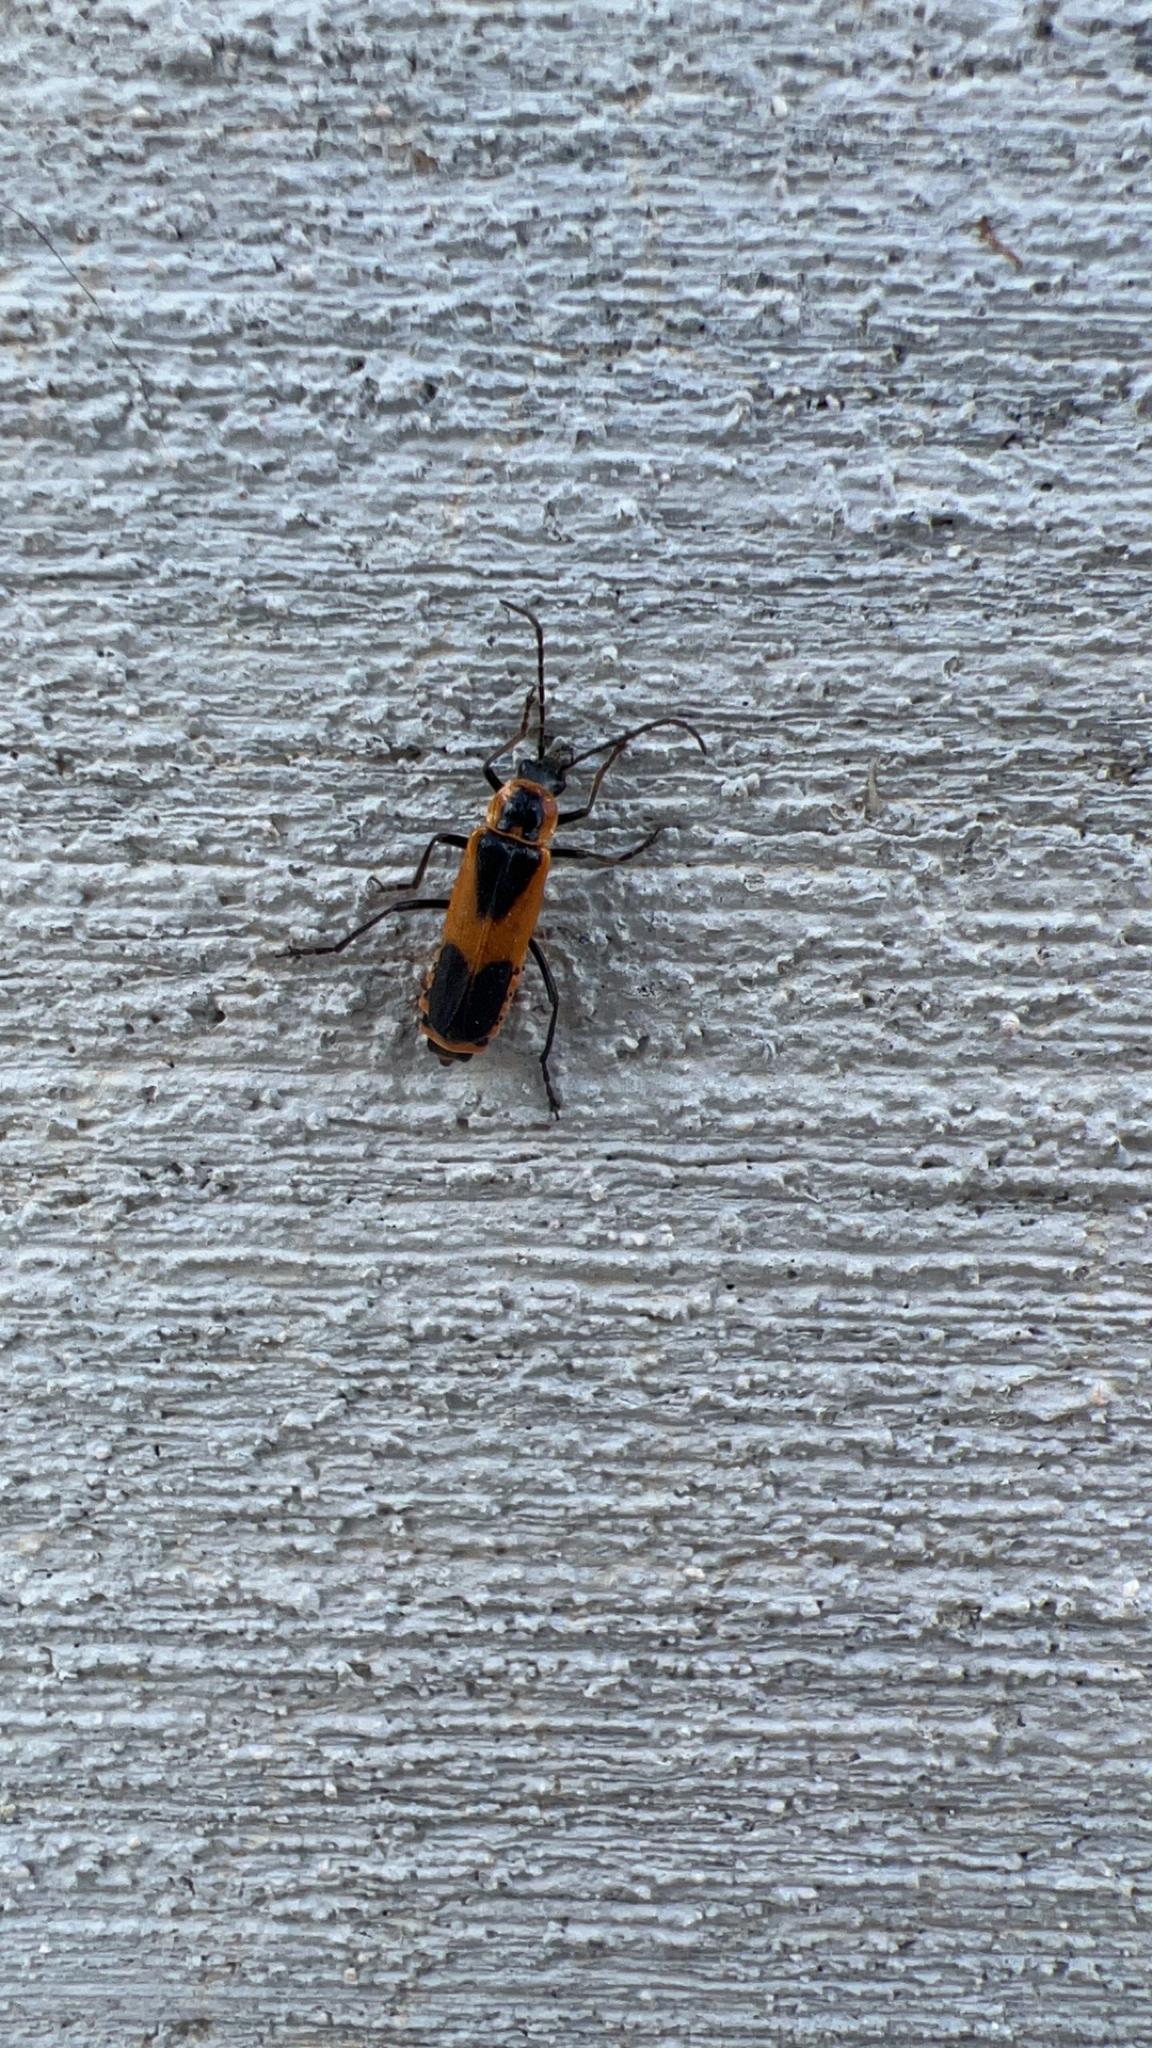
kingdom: Animalia
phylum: Arthropoda
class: Insecta
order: Coleoptera
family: Cantharidae
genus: Chauliognathus
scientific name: Chauliognathus basalis
